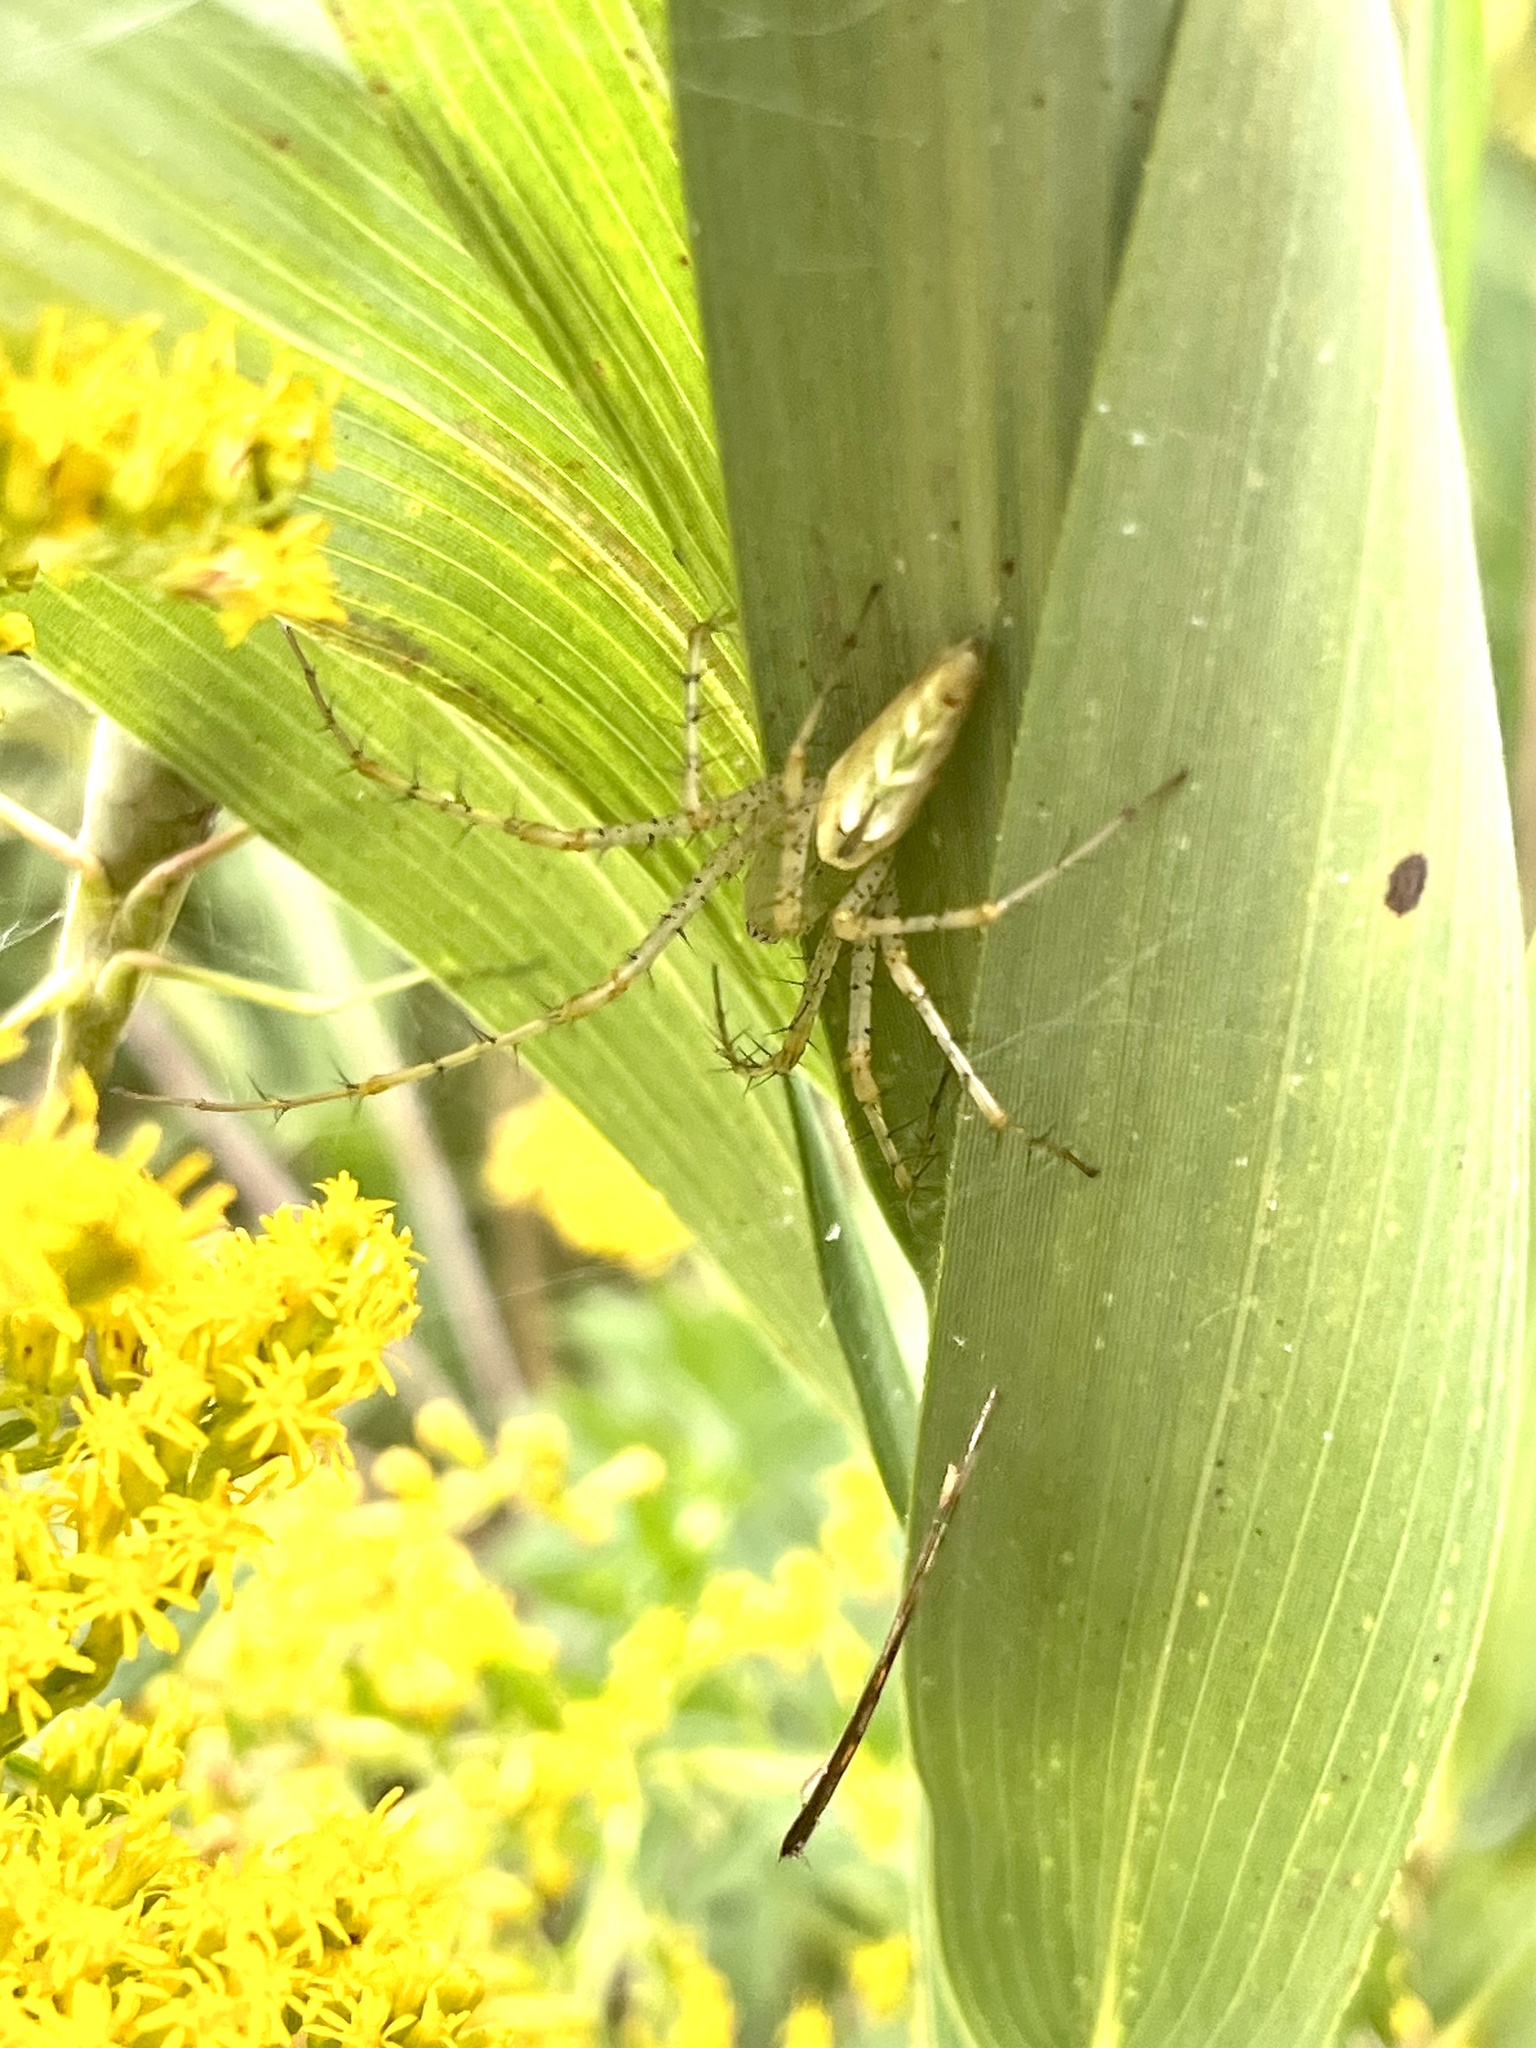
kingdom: Animalia
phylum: Arthropoda
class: Arachnida
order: Araneae
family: Oxyopidae
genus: Peucetia
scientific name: Peucetia viridans
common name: Lynx spiders
